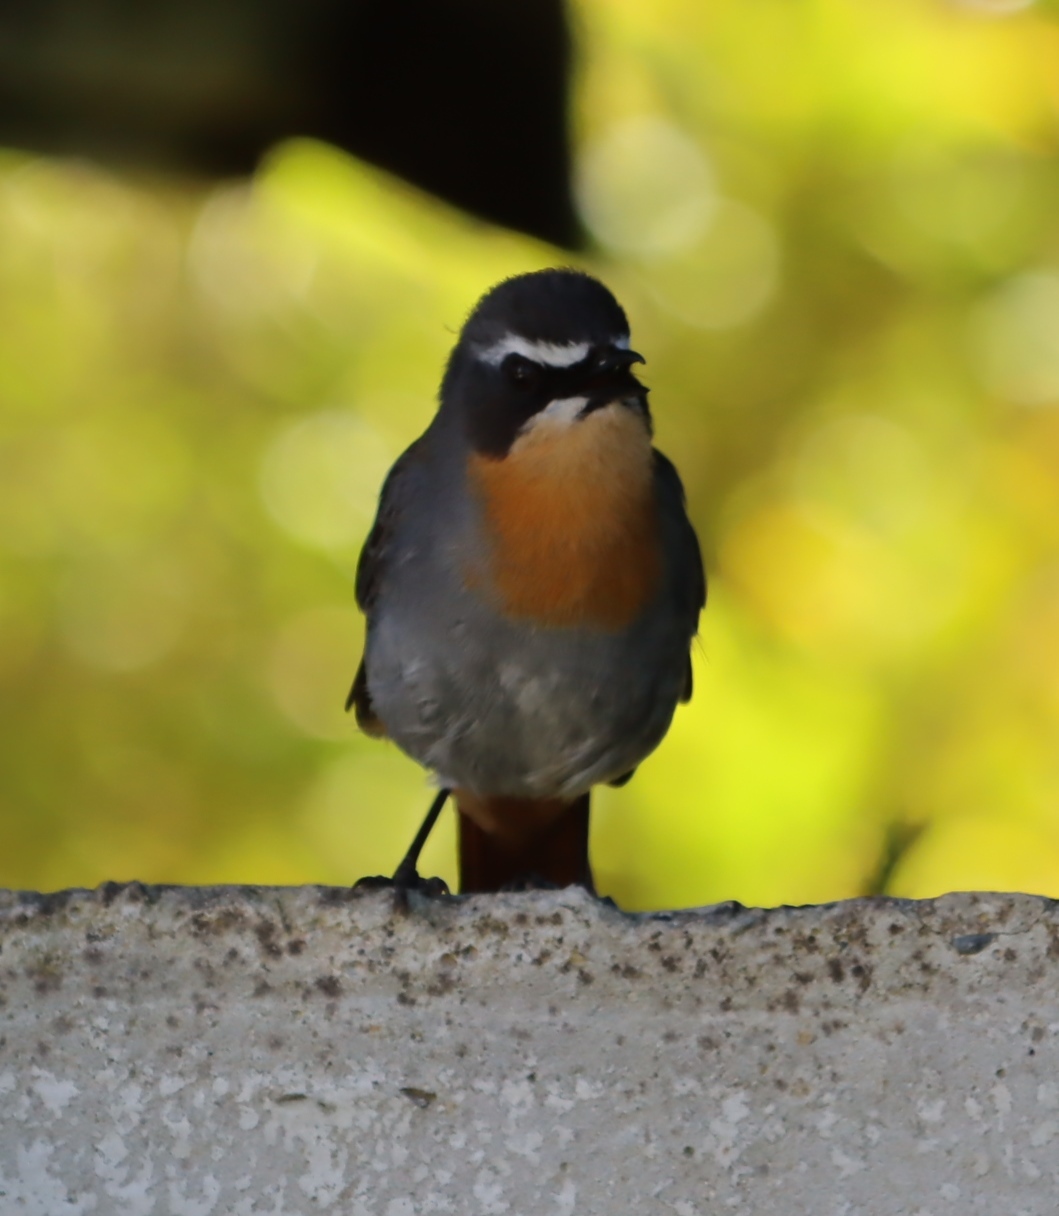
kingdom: Animalia
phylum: Chordata
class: Aves
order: Passeriformes
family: Muscicapidae
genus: Cossypha
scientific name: Cossypha caffra
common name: Cape robin-chat
